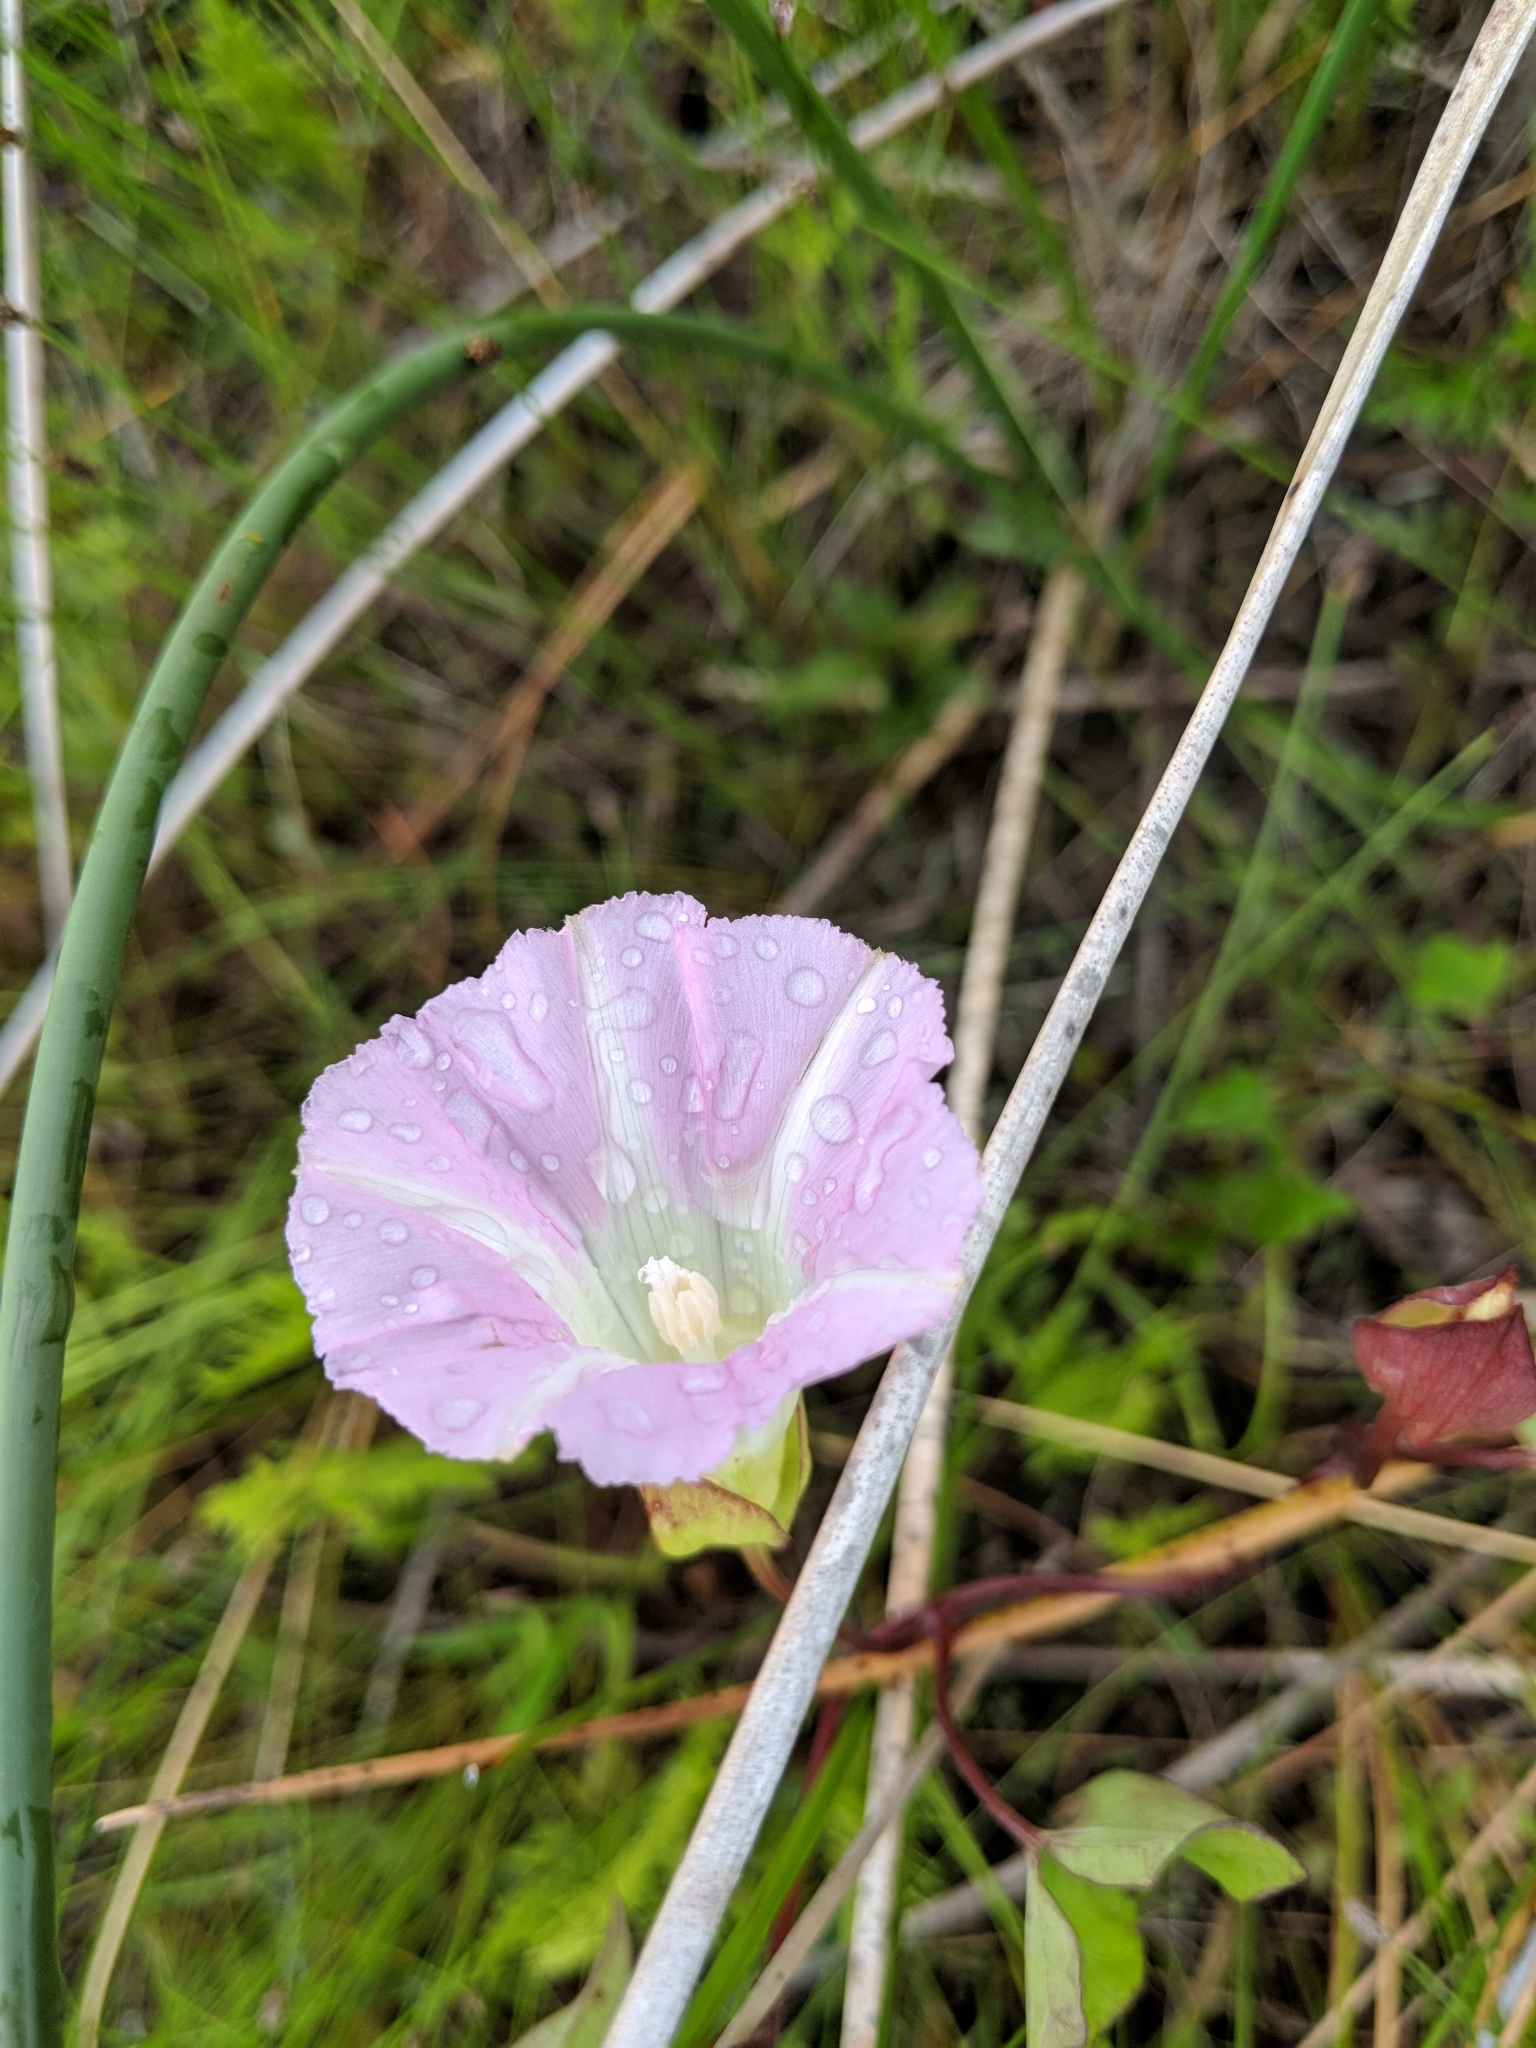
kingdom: Plantae
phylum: Tracheophyta
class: Magnoliopsida
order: Solanales
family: Convolvulaceae
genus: Calystegia
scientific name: Calystegia sepium
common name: Hedge bindweed
